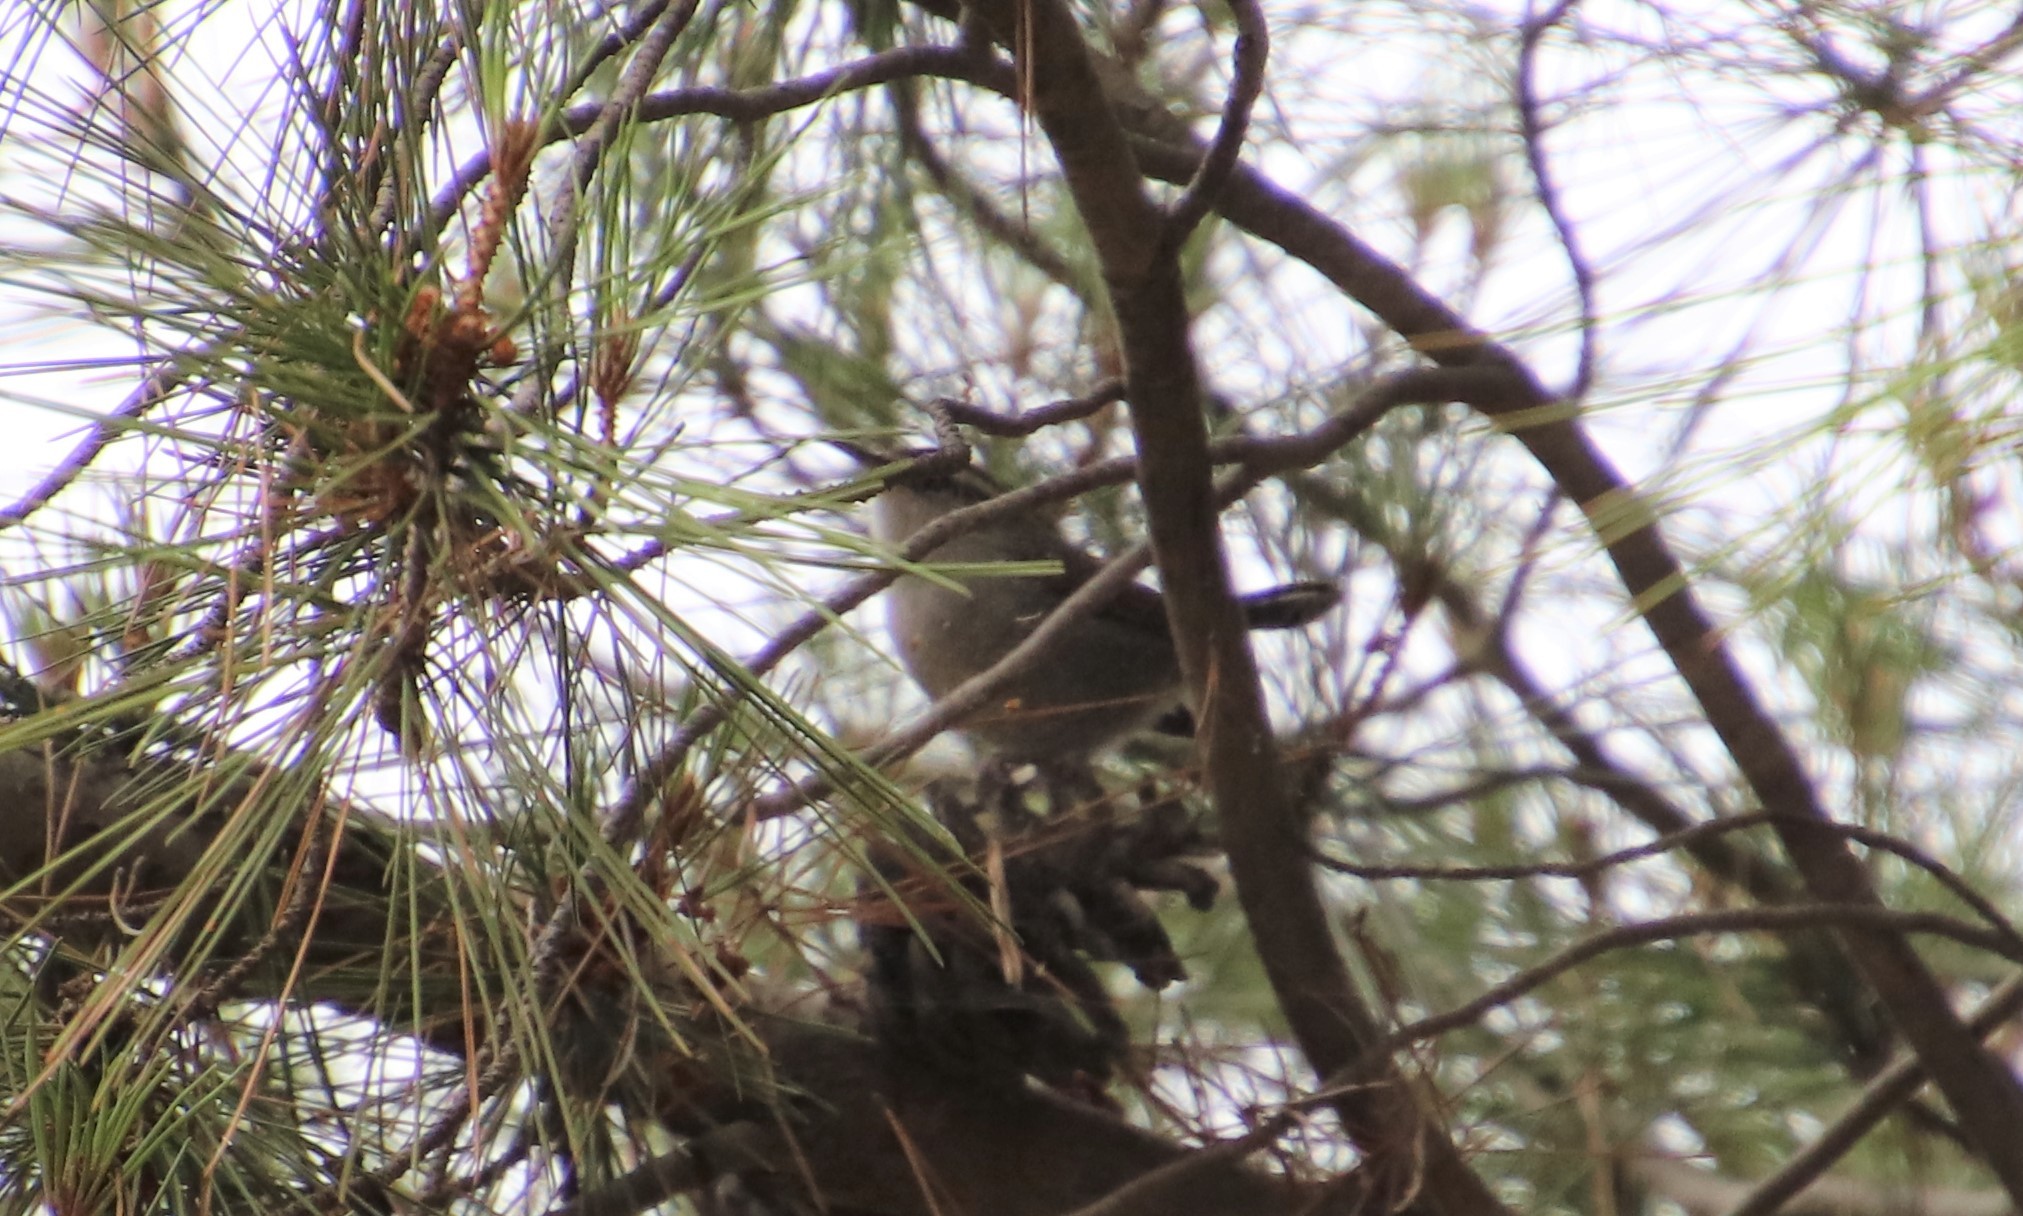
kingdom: Animalia
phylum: Chordata
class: Aves
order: Passeriformes
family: Troglodytidae
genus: Thryomanes
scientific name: Thryomanes bewickii
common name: Bewick's wren
